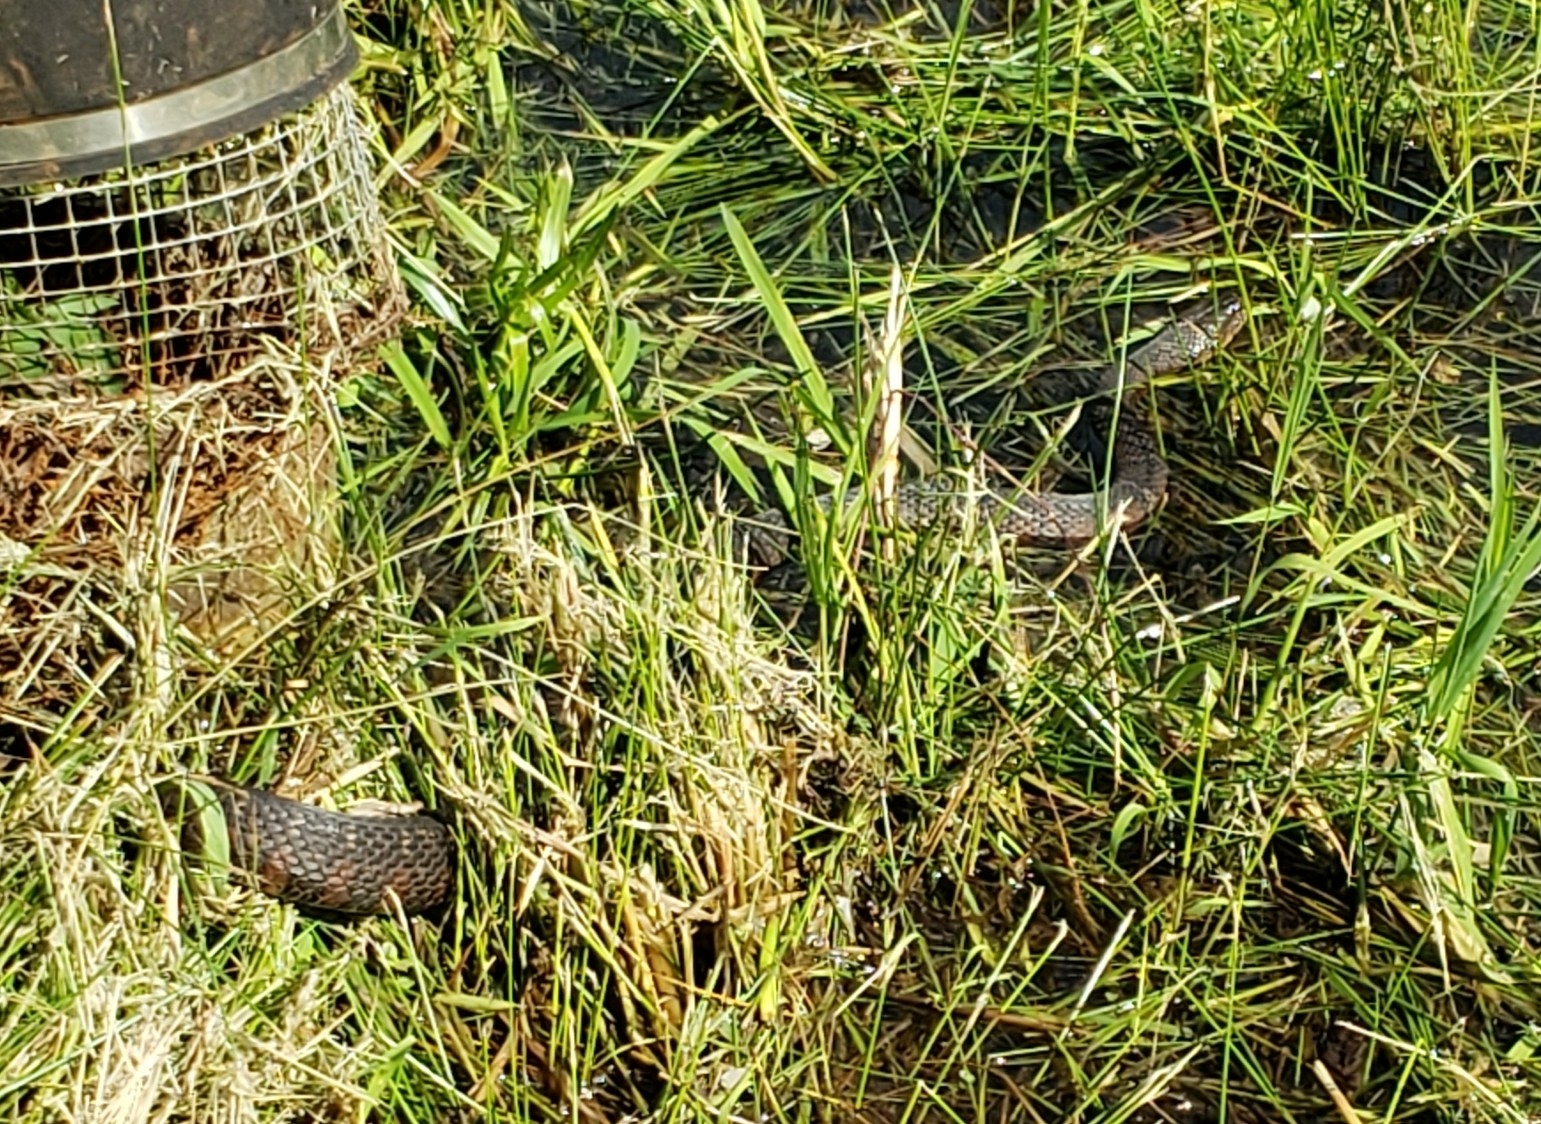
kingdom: Animalia
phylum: Chordata
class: Squamata
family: Colubridae
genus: Nerodia
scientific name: Nerodia sipedon
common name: Northern water snake
